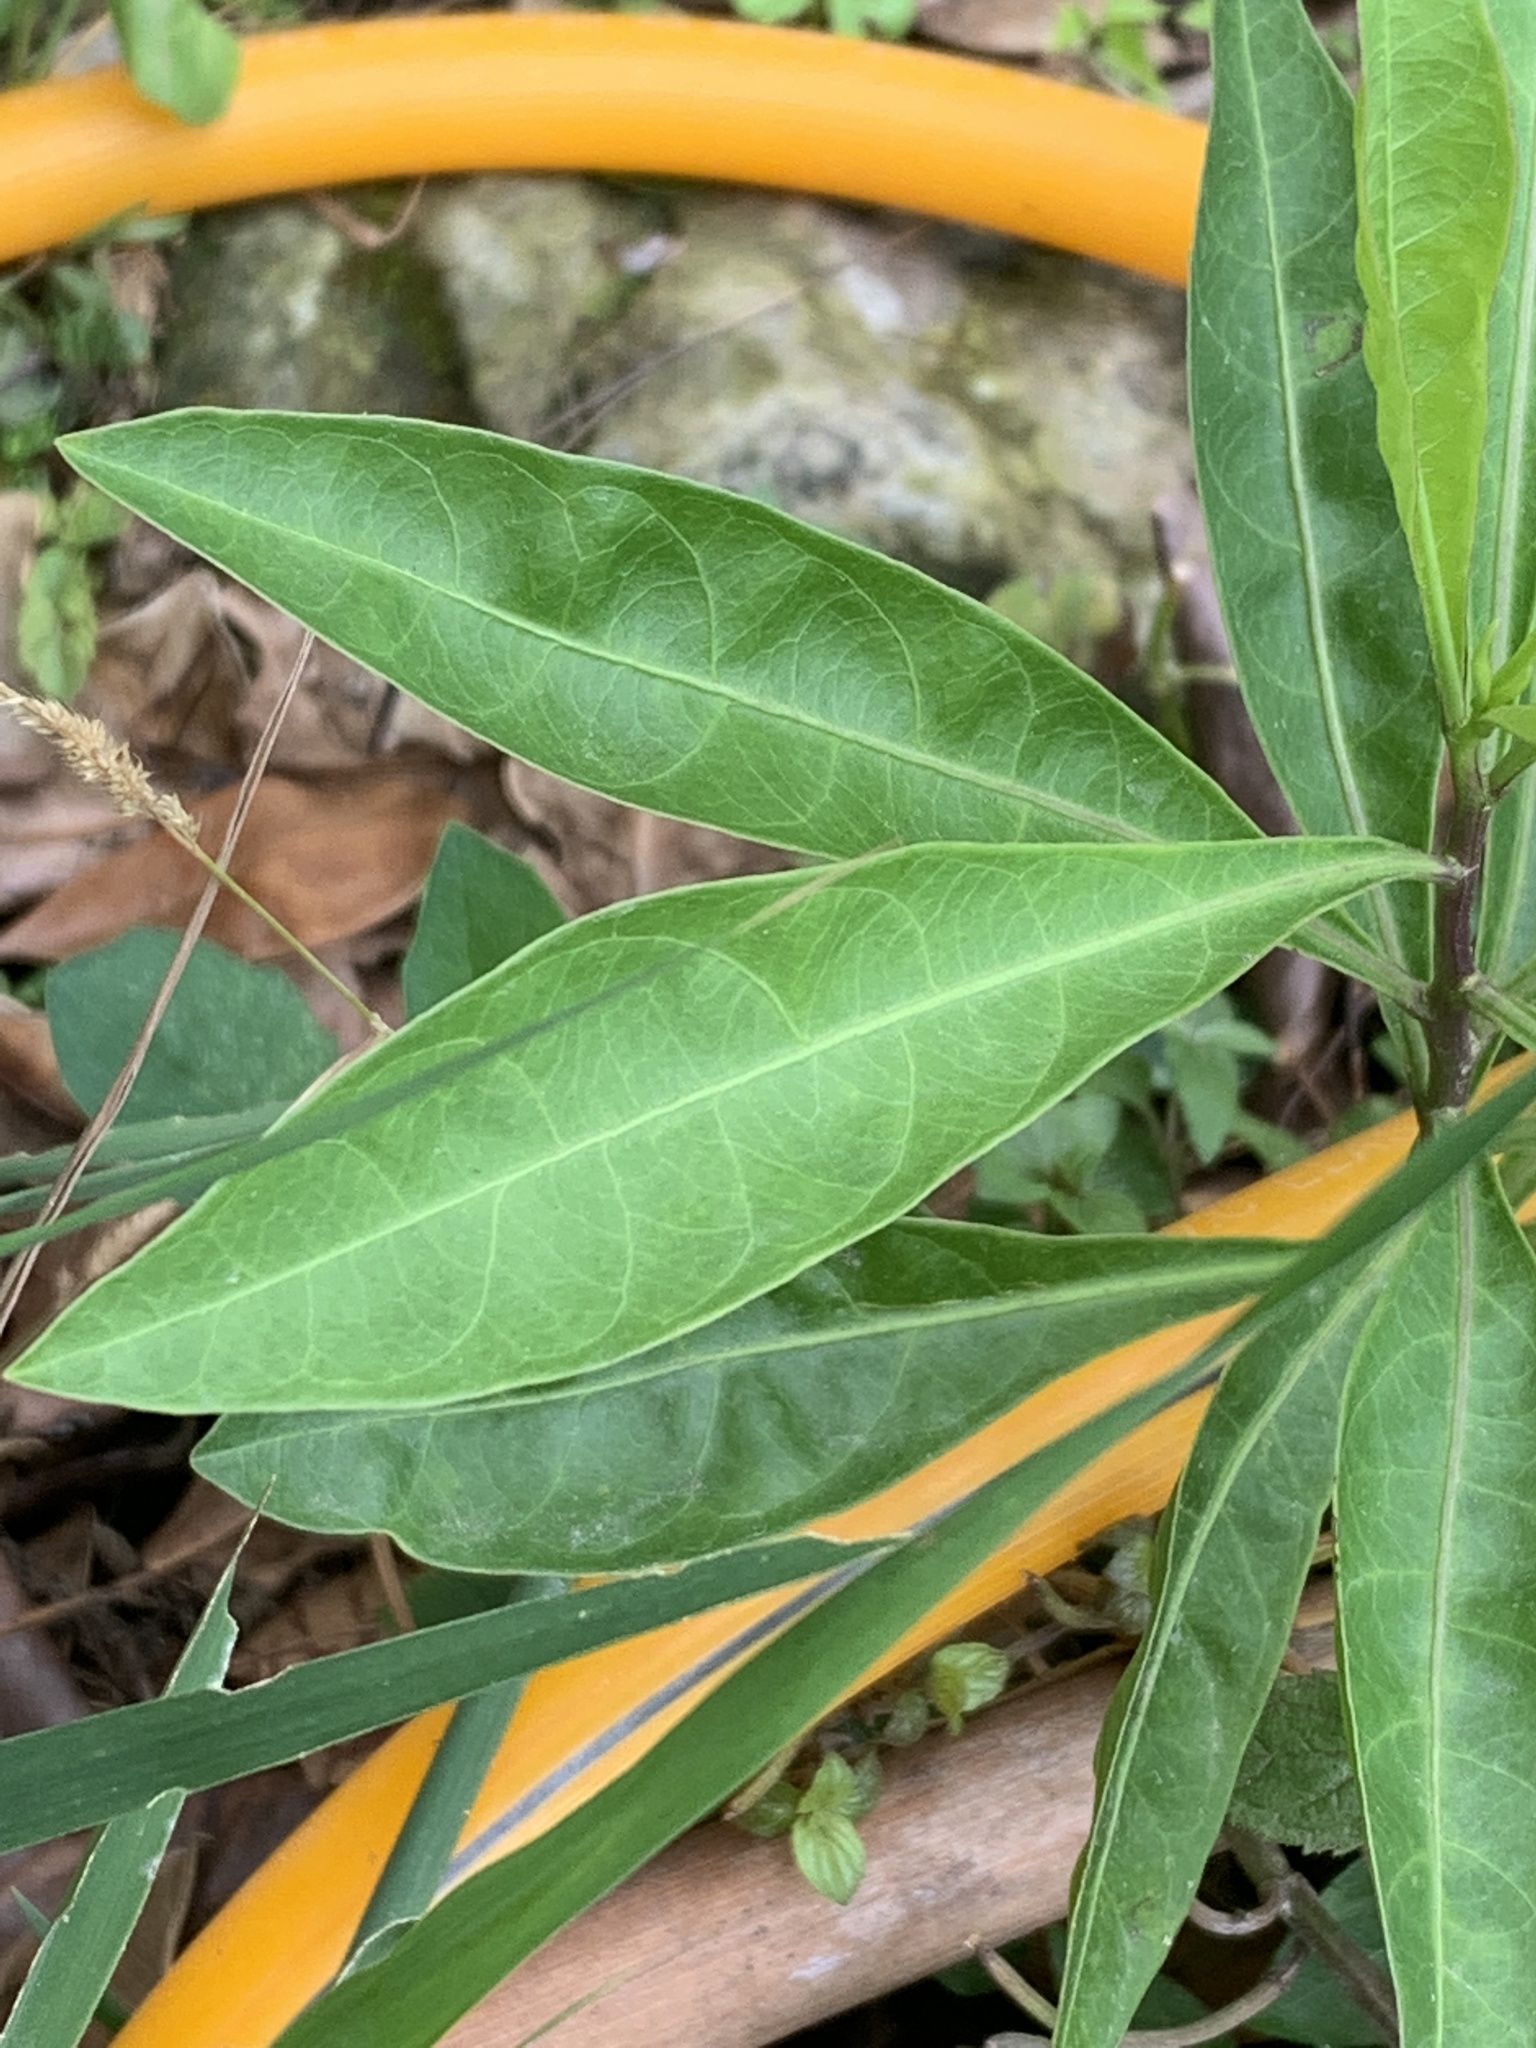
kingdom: Plantae
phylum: Tracheophyta
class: Magnoliopsida
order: Solanales
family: Solanaceae
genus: Solanum
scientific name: Solanum diphyllum
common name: Twoleaf nightshade
